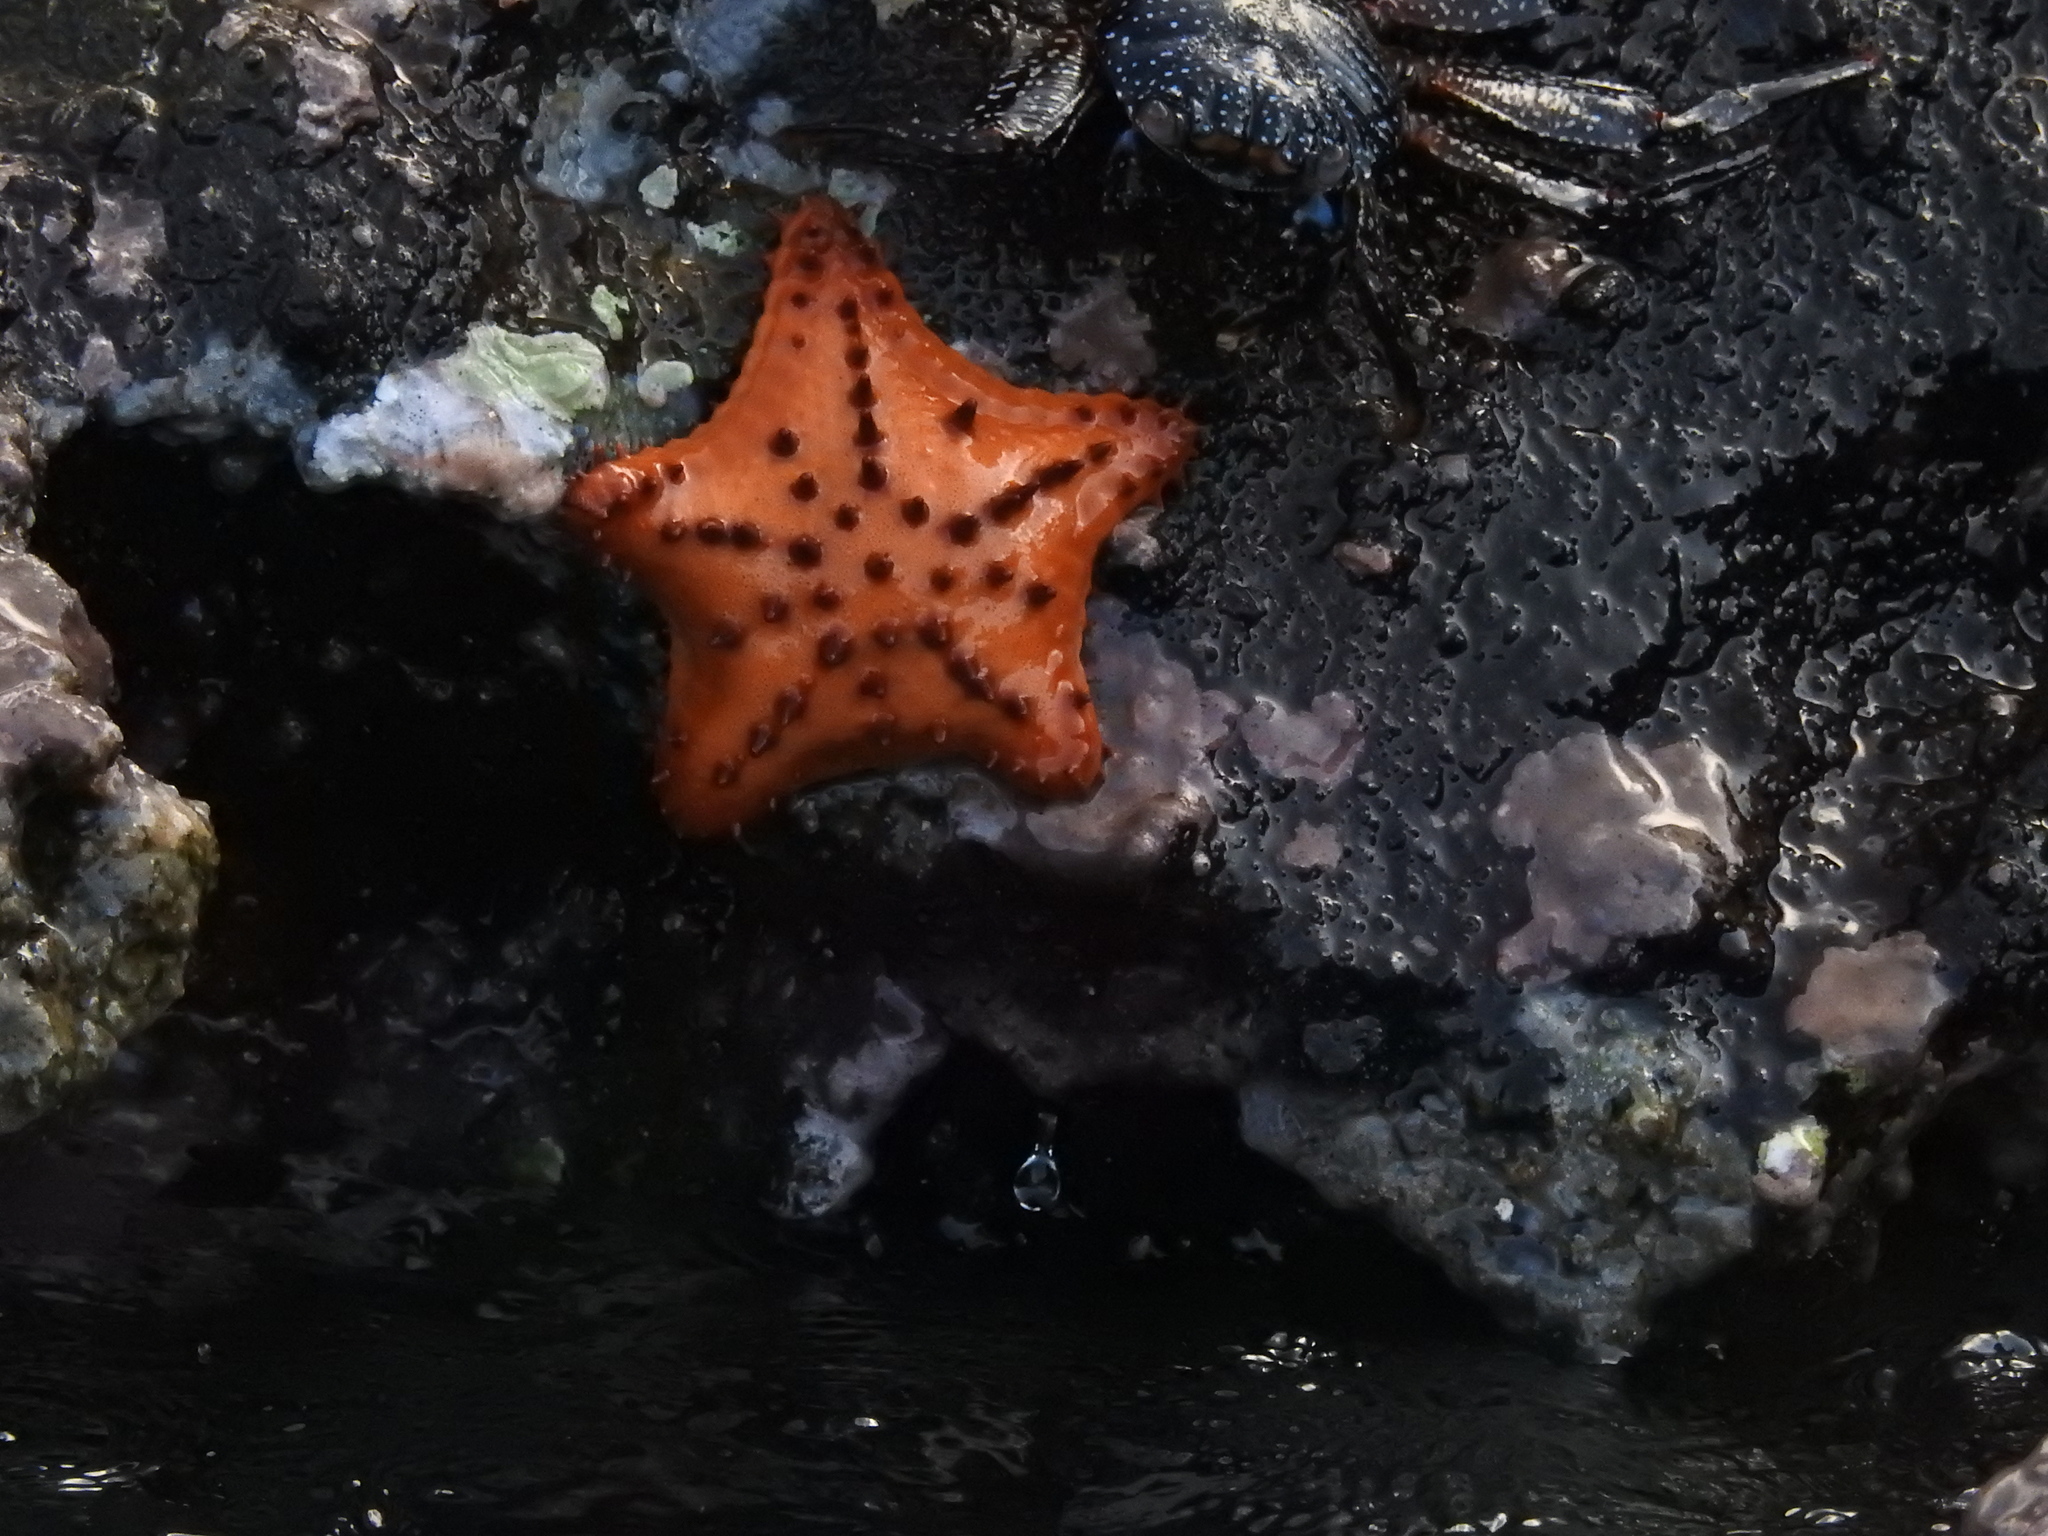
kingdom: Animalia
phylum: Echinodermata
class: Asteroidea
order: Valvatida
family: Oreasteridae
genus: Nidorellia
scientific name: Nidorellia armata
